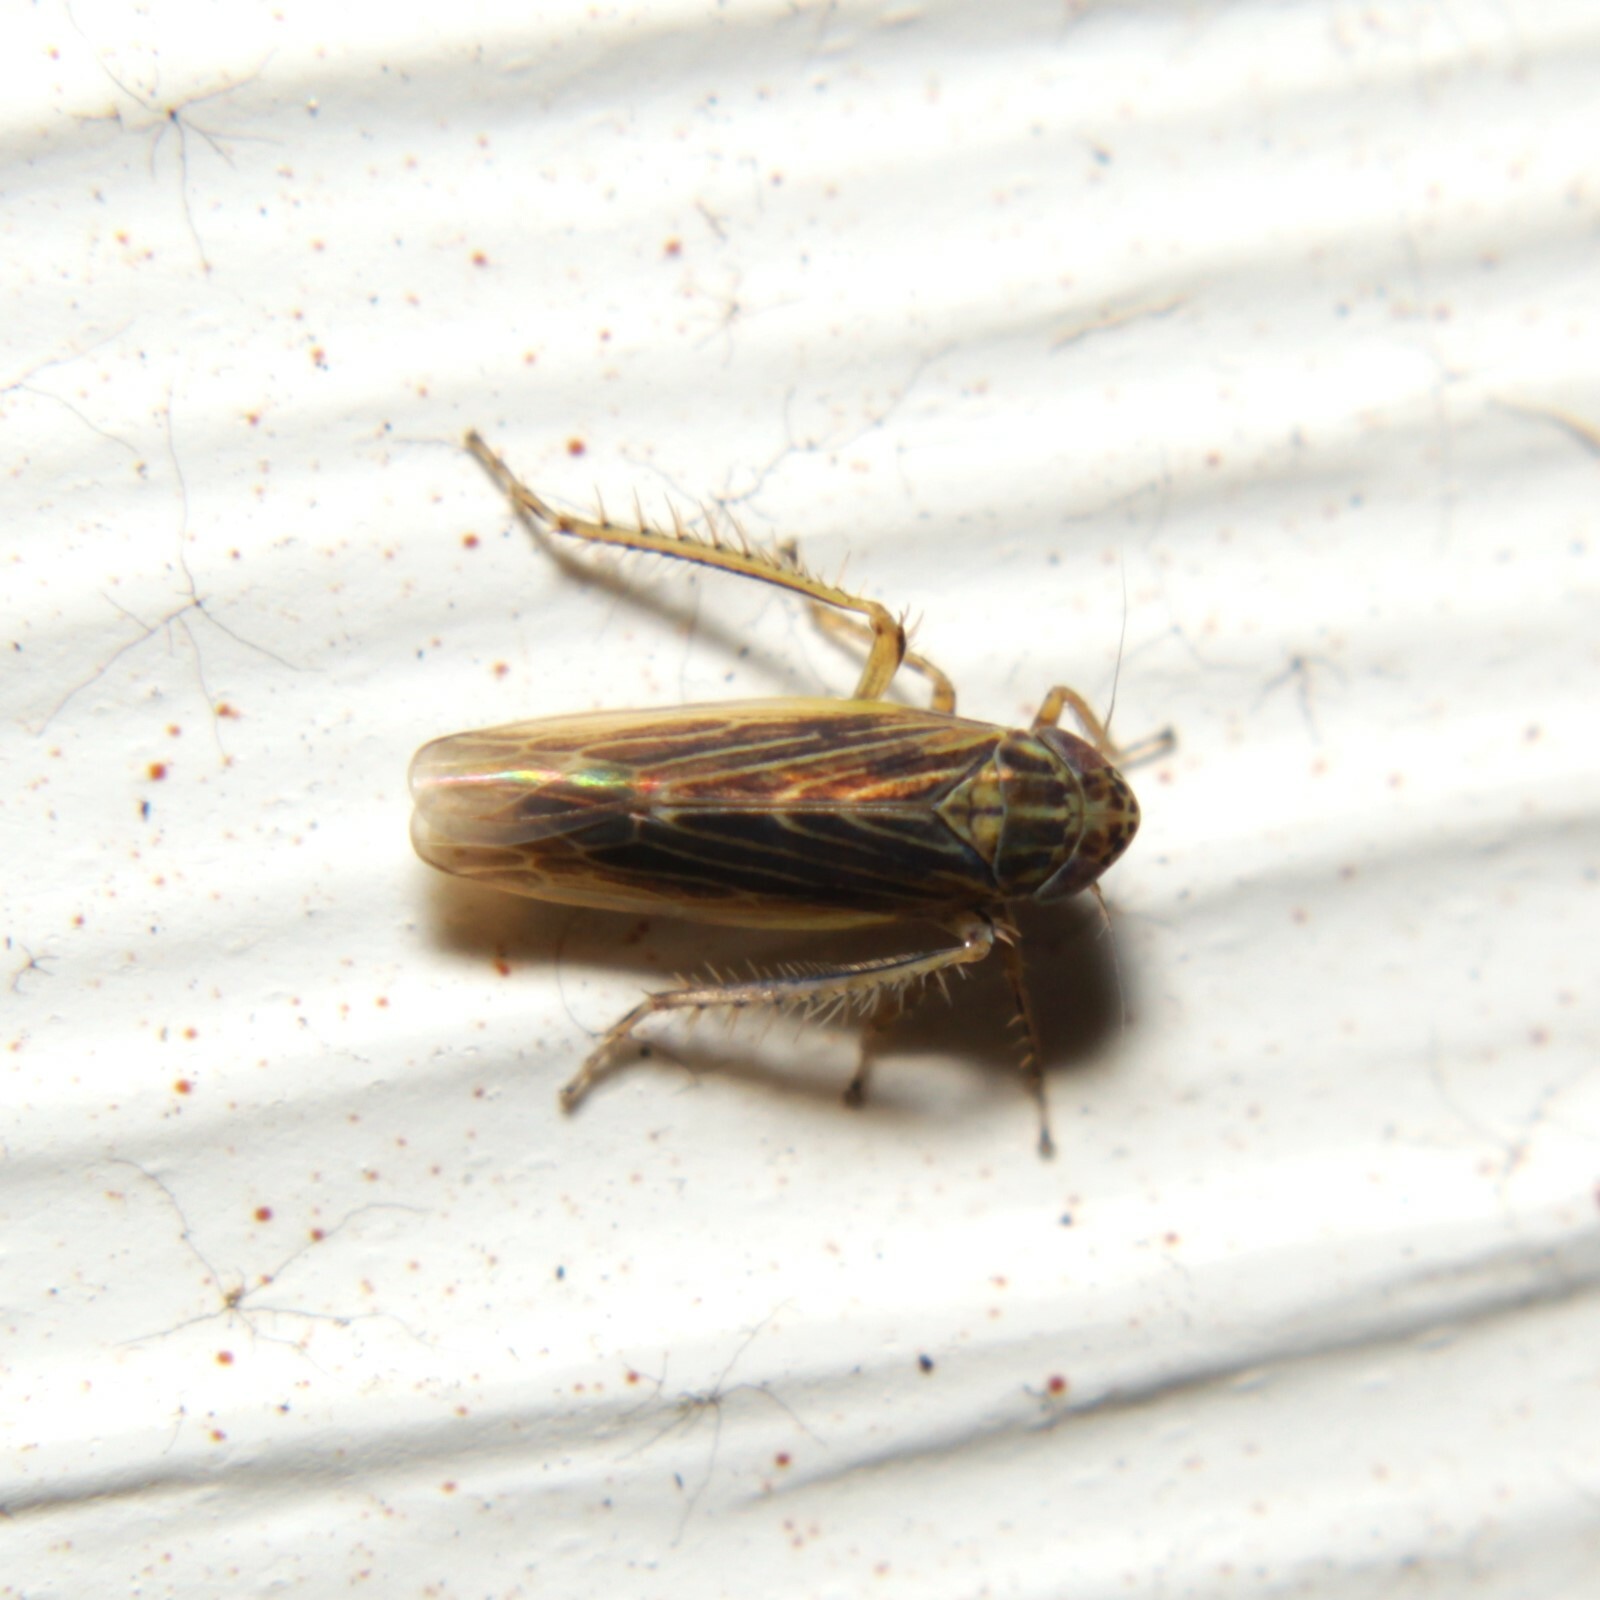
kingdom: Animalia
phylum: Arthropoda
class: Insecta
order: Hemiptera
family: Cicadellidae
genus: Graminella
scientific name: Graminella nigrifrons
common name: Blackfaced leafhopper
